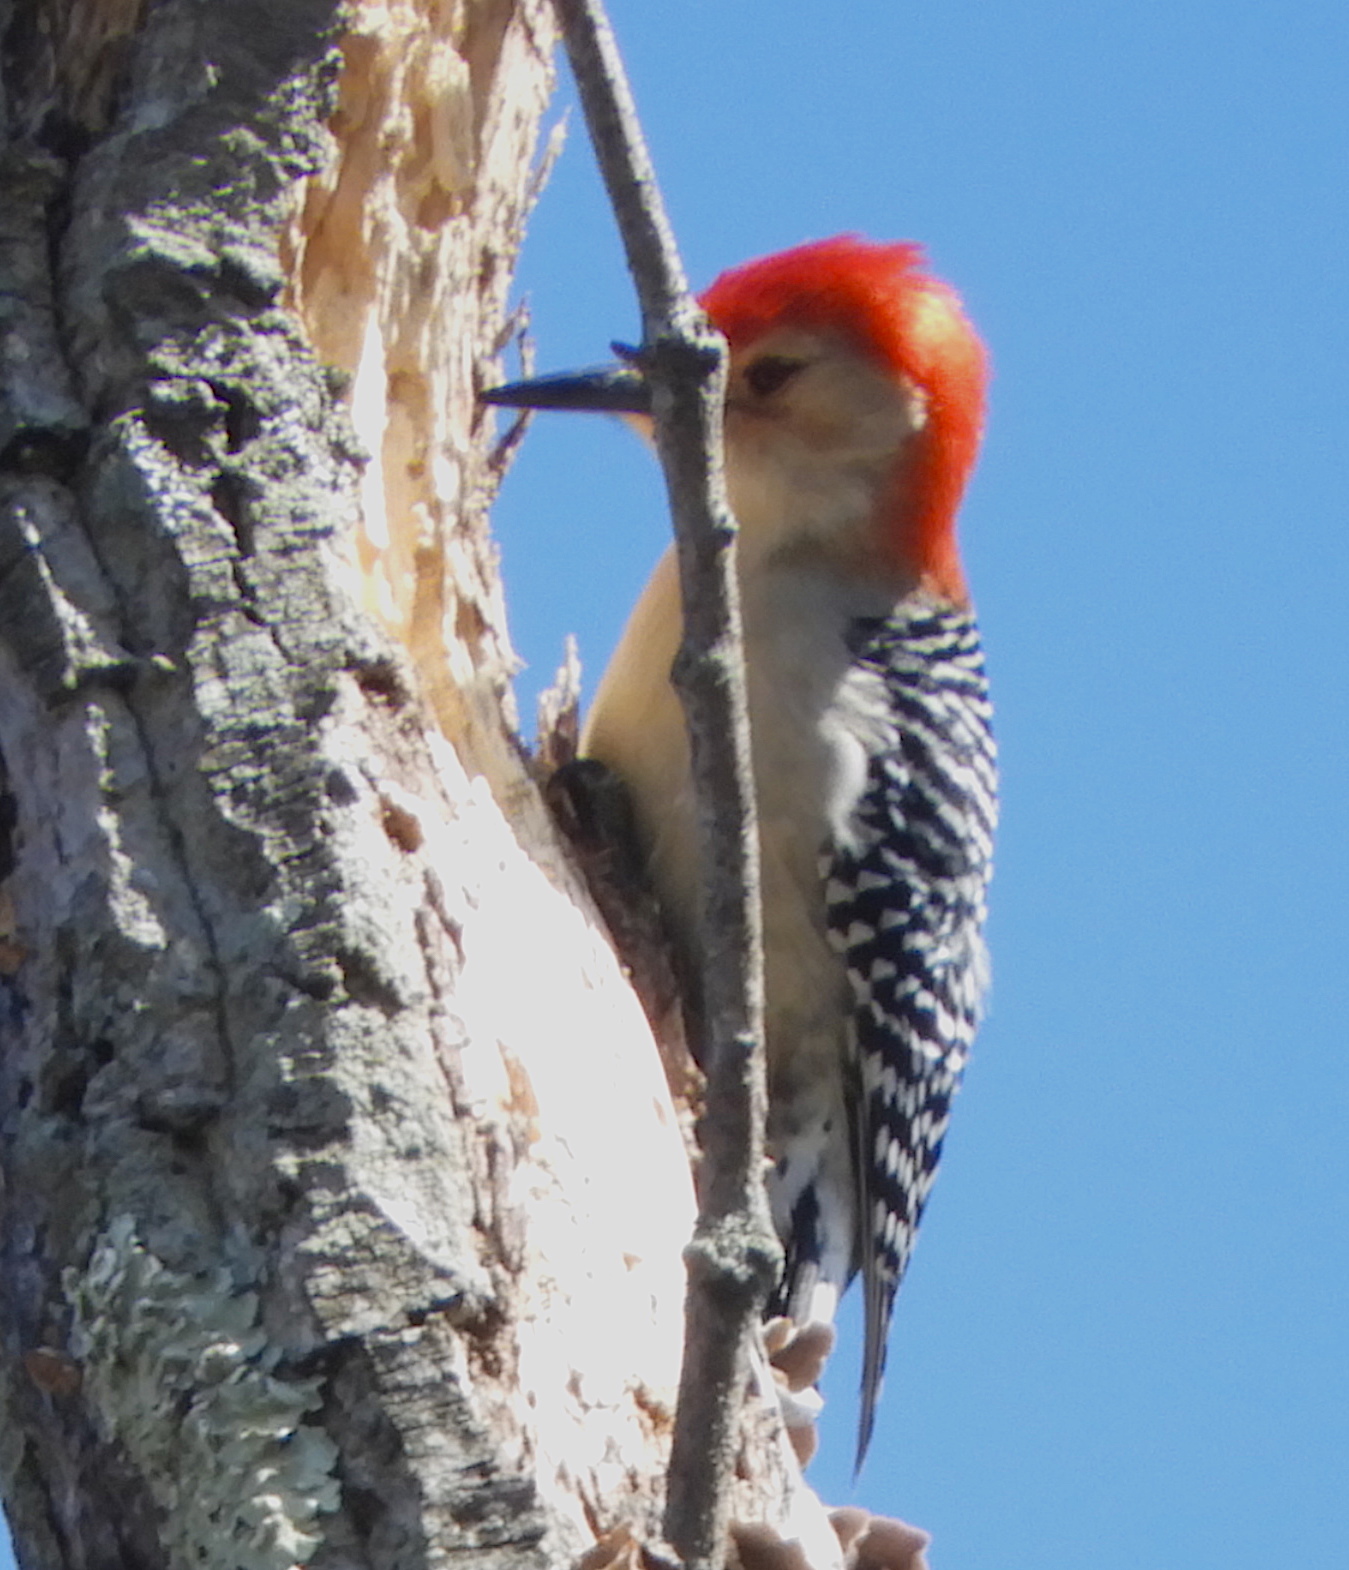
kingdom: Animalia
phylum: Chordata
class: Aves
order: Piciformes
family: Picidae
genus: Melanerpes
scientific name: Melanerpes carolinus
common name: Red-bellied woodpecker
